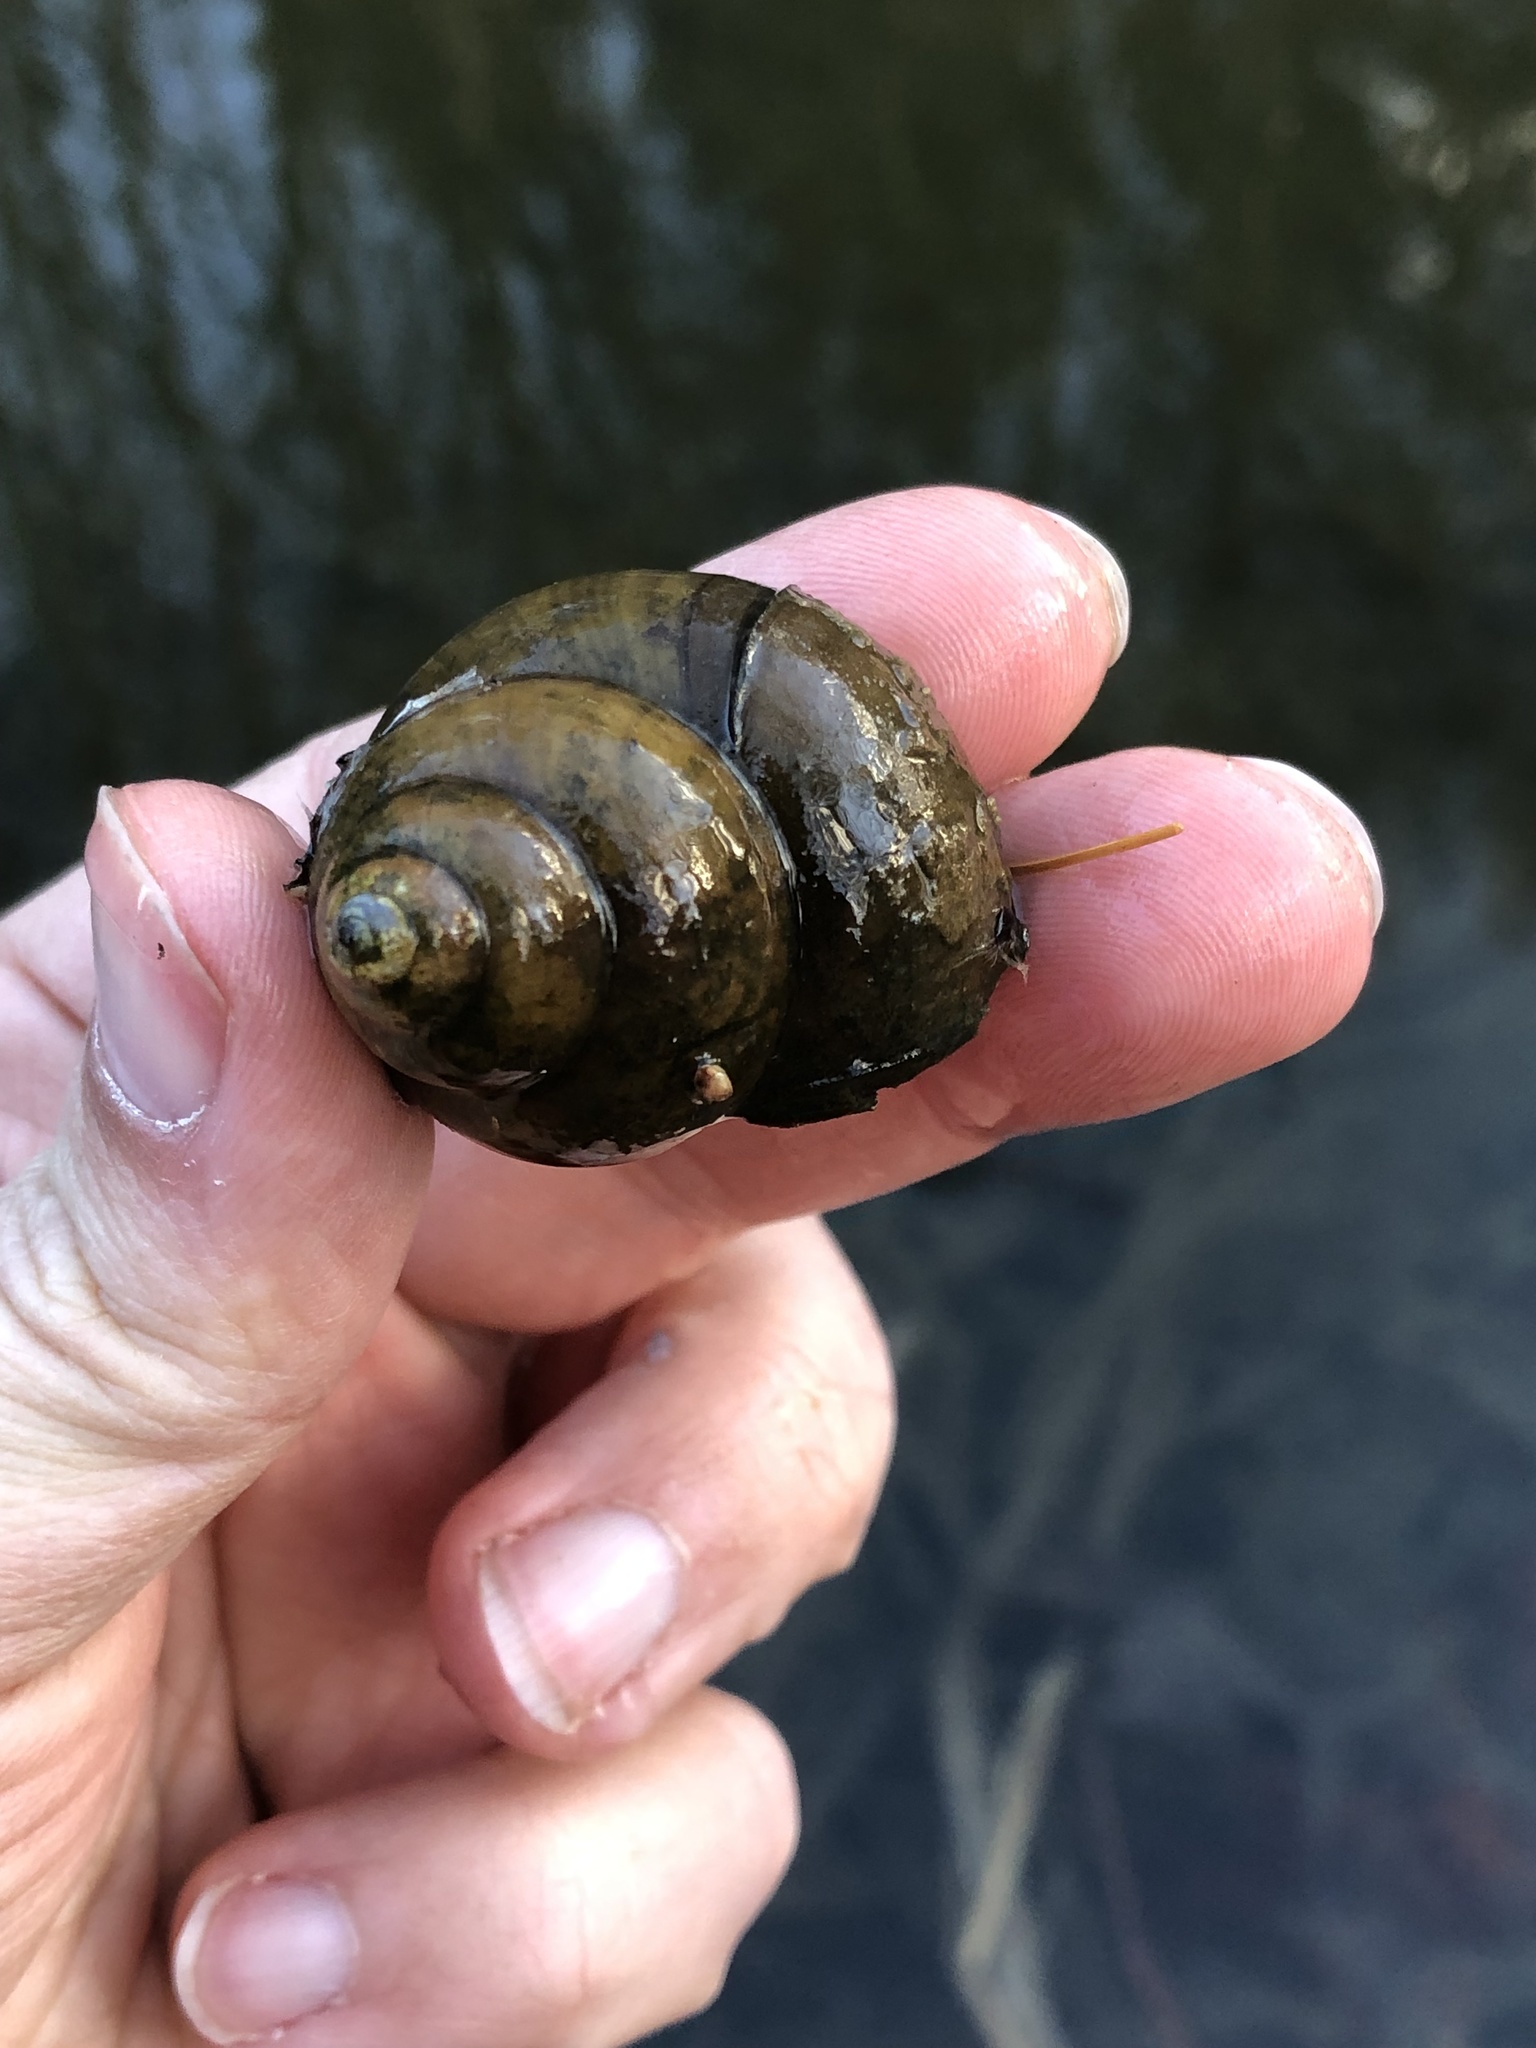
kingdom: Animalia
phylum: Mollusca
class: Gastropoda
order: Architaenioglossa
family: Viviparidae
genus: Cipangopaludina
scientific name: Cipangopaludina chinensis
